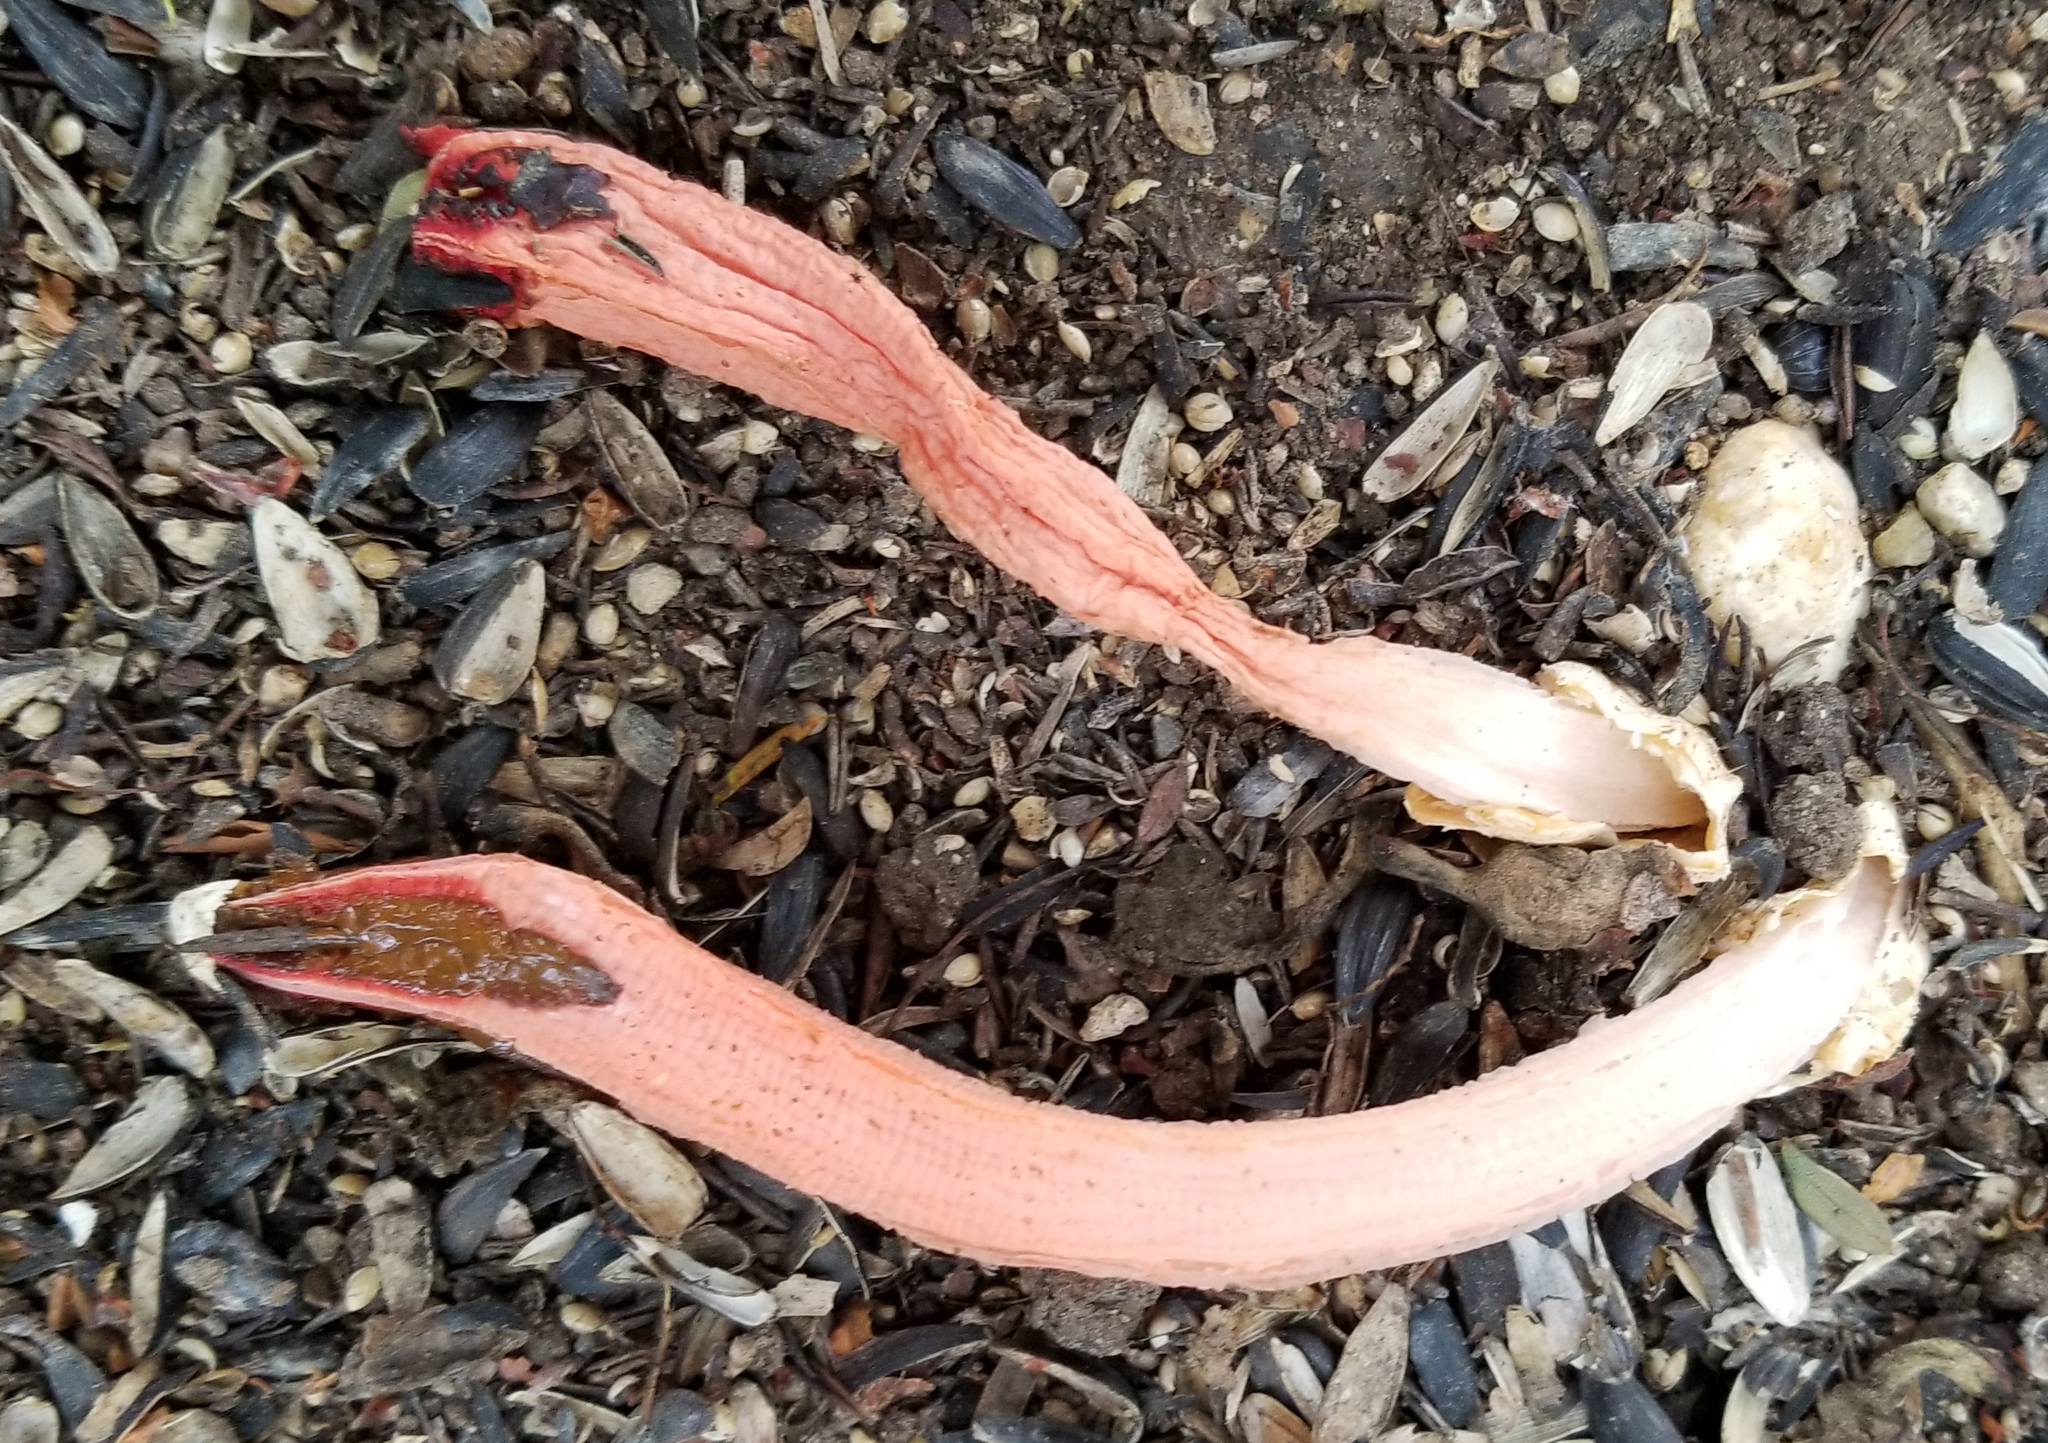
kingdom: Fungi
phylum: Basidiomycota
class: Agaricomycetes
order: Phallales
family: Phallaceae
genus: Lysurus
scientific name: Lysurus mokusin
